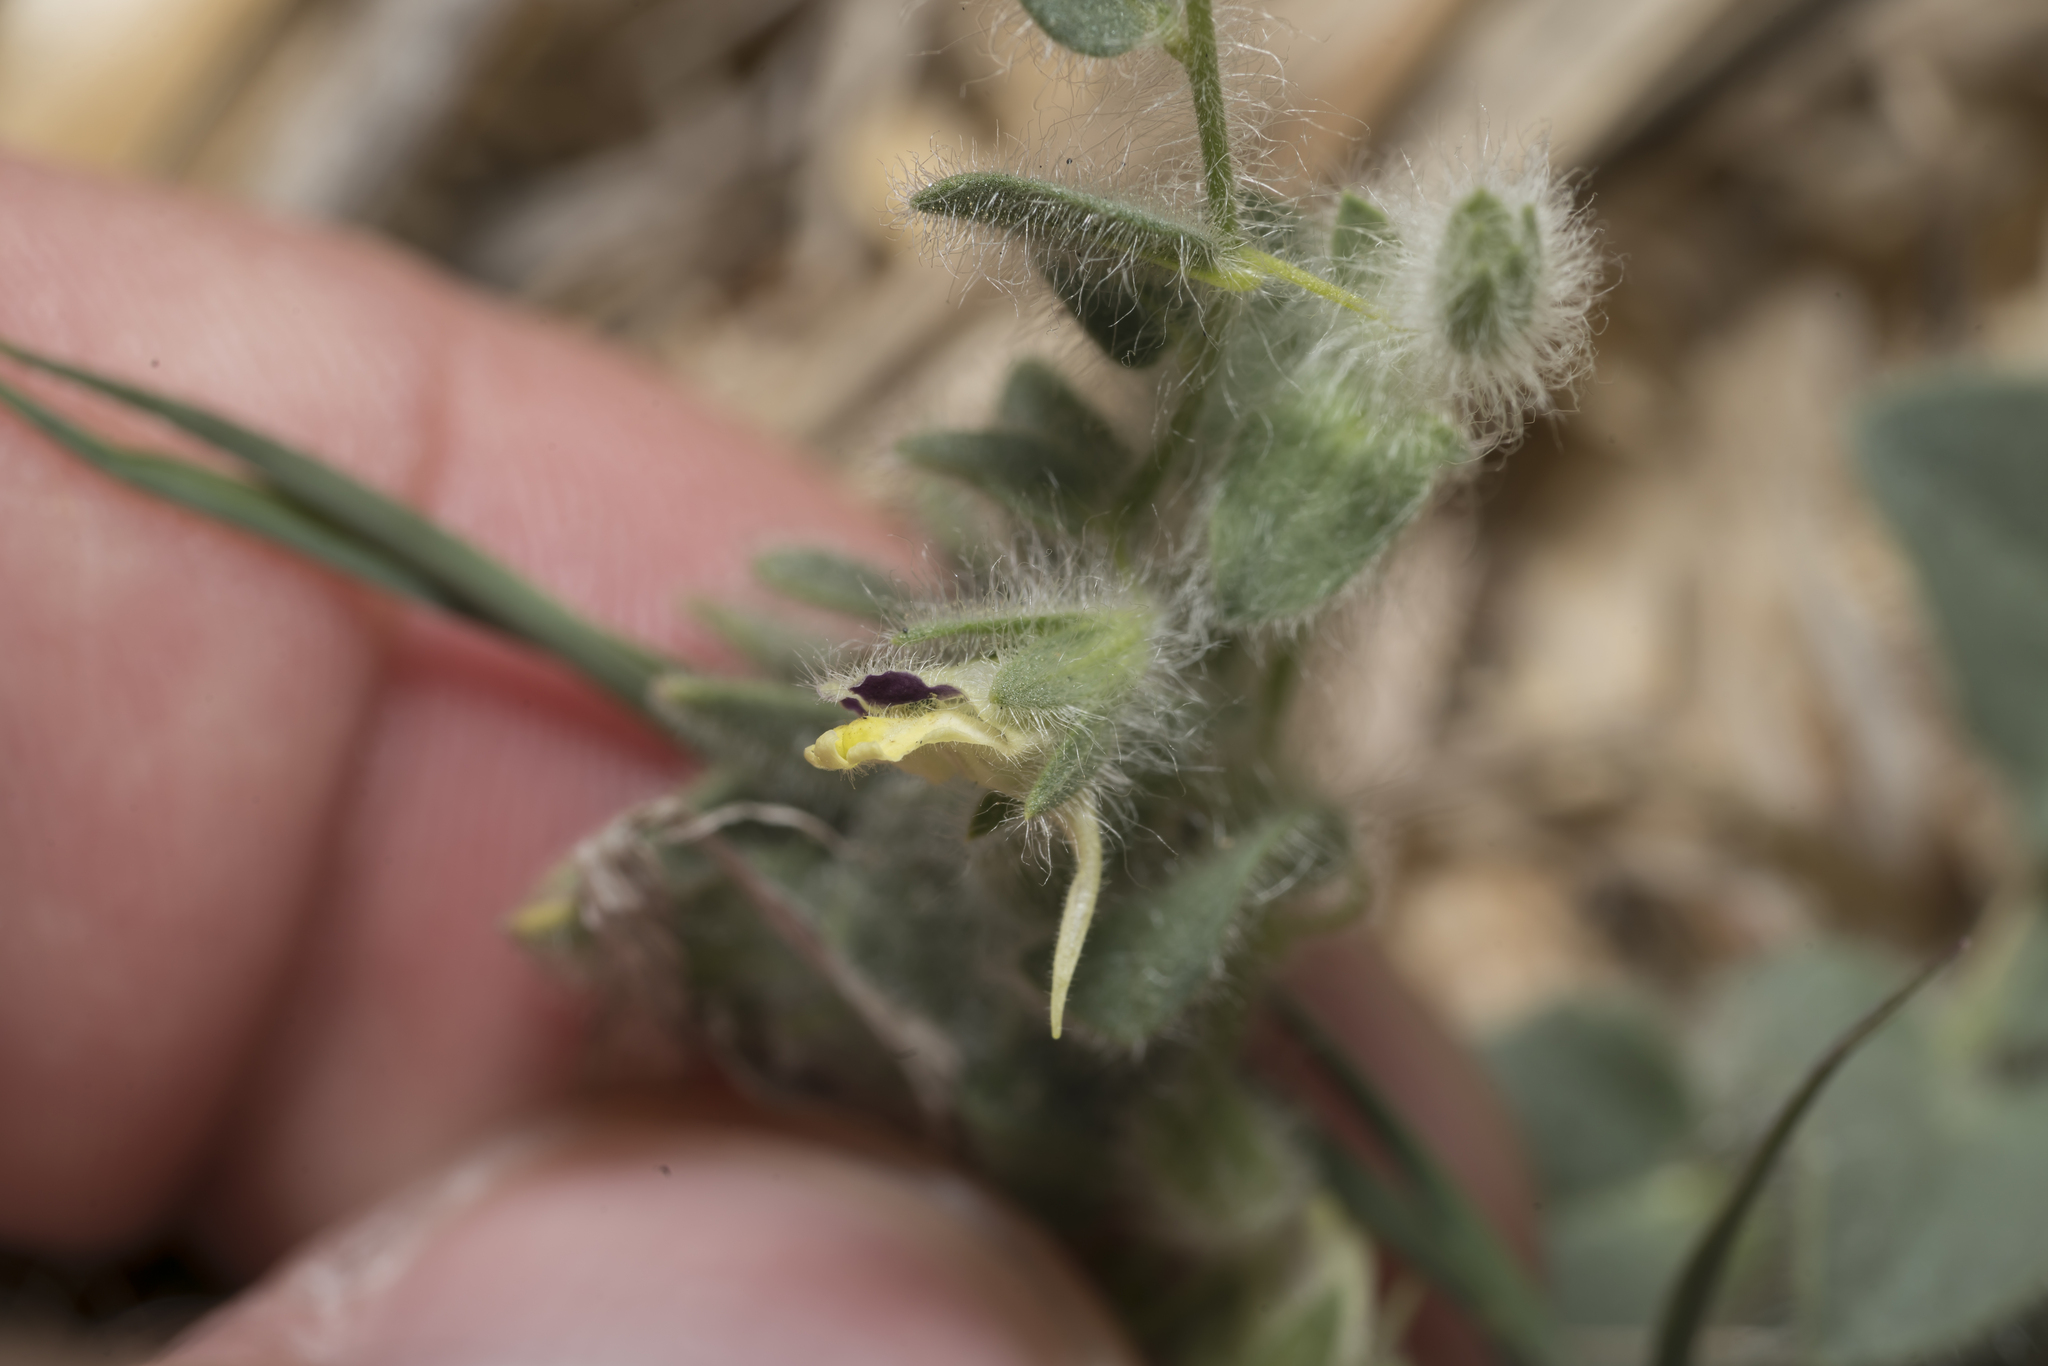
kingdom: Plantae
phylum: Tracheophyta
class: Magnoliopsida
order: Lamiales
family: Plantaginaceae
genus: Kickxia
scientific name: Kickxia elatine
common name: Sharp-leaved fluellen
